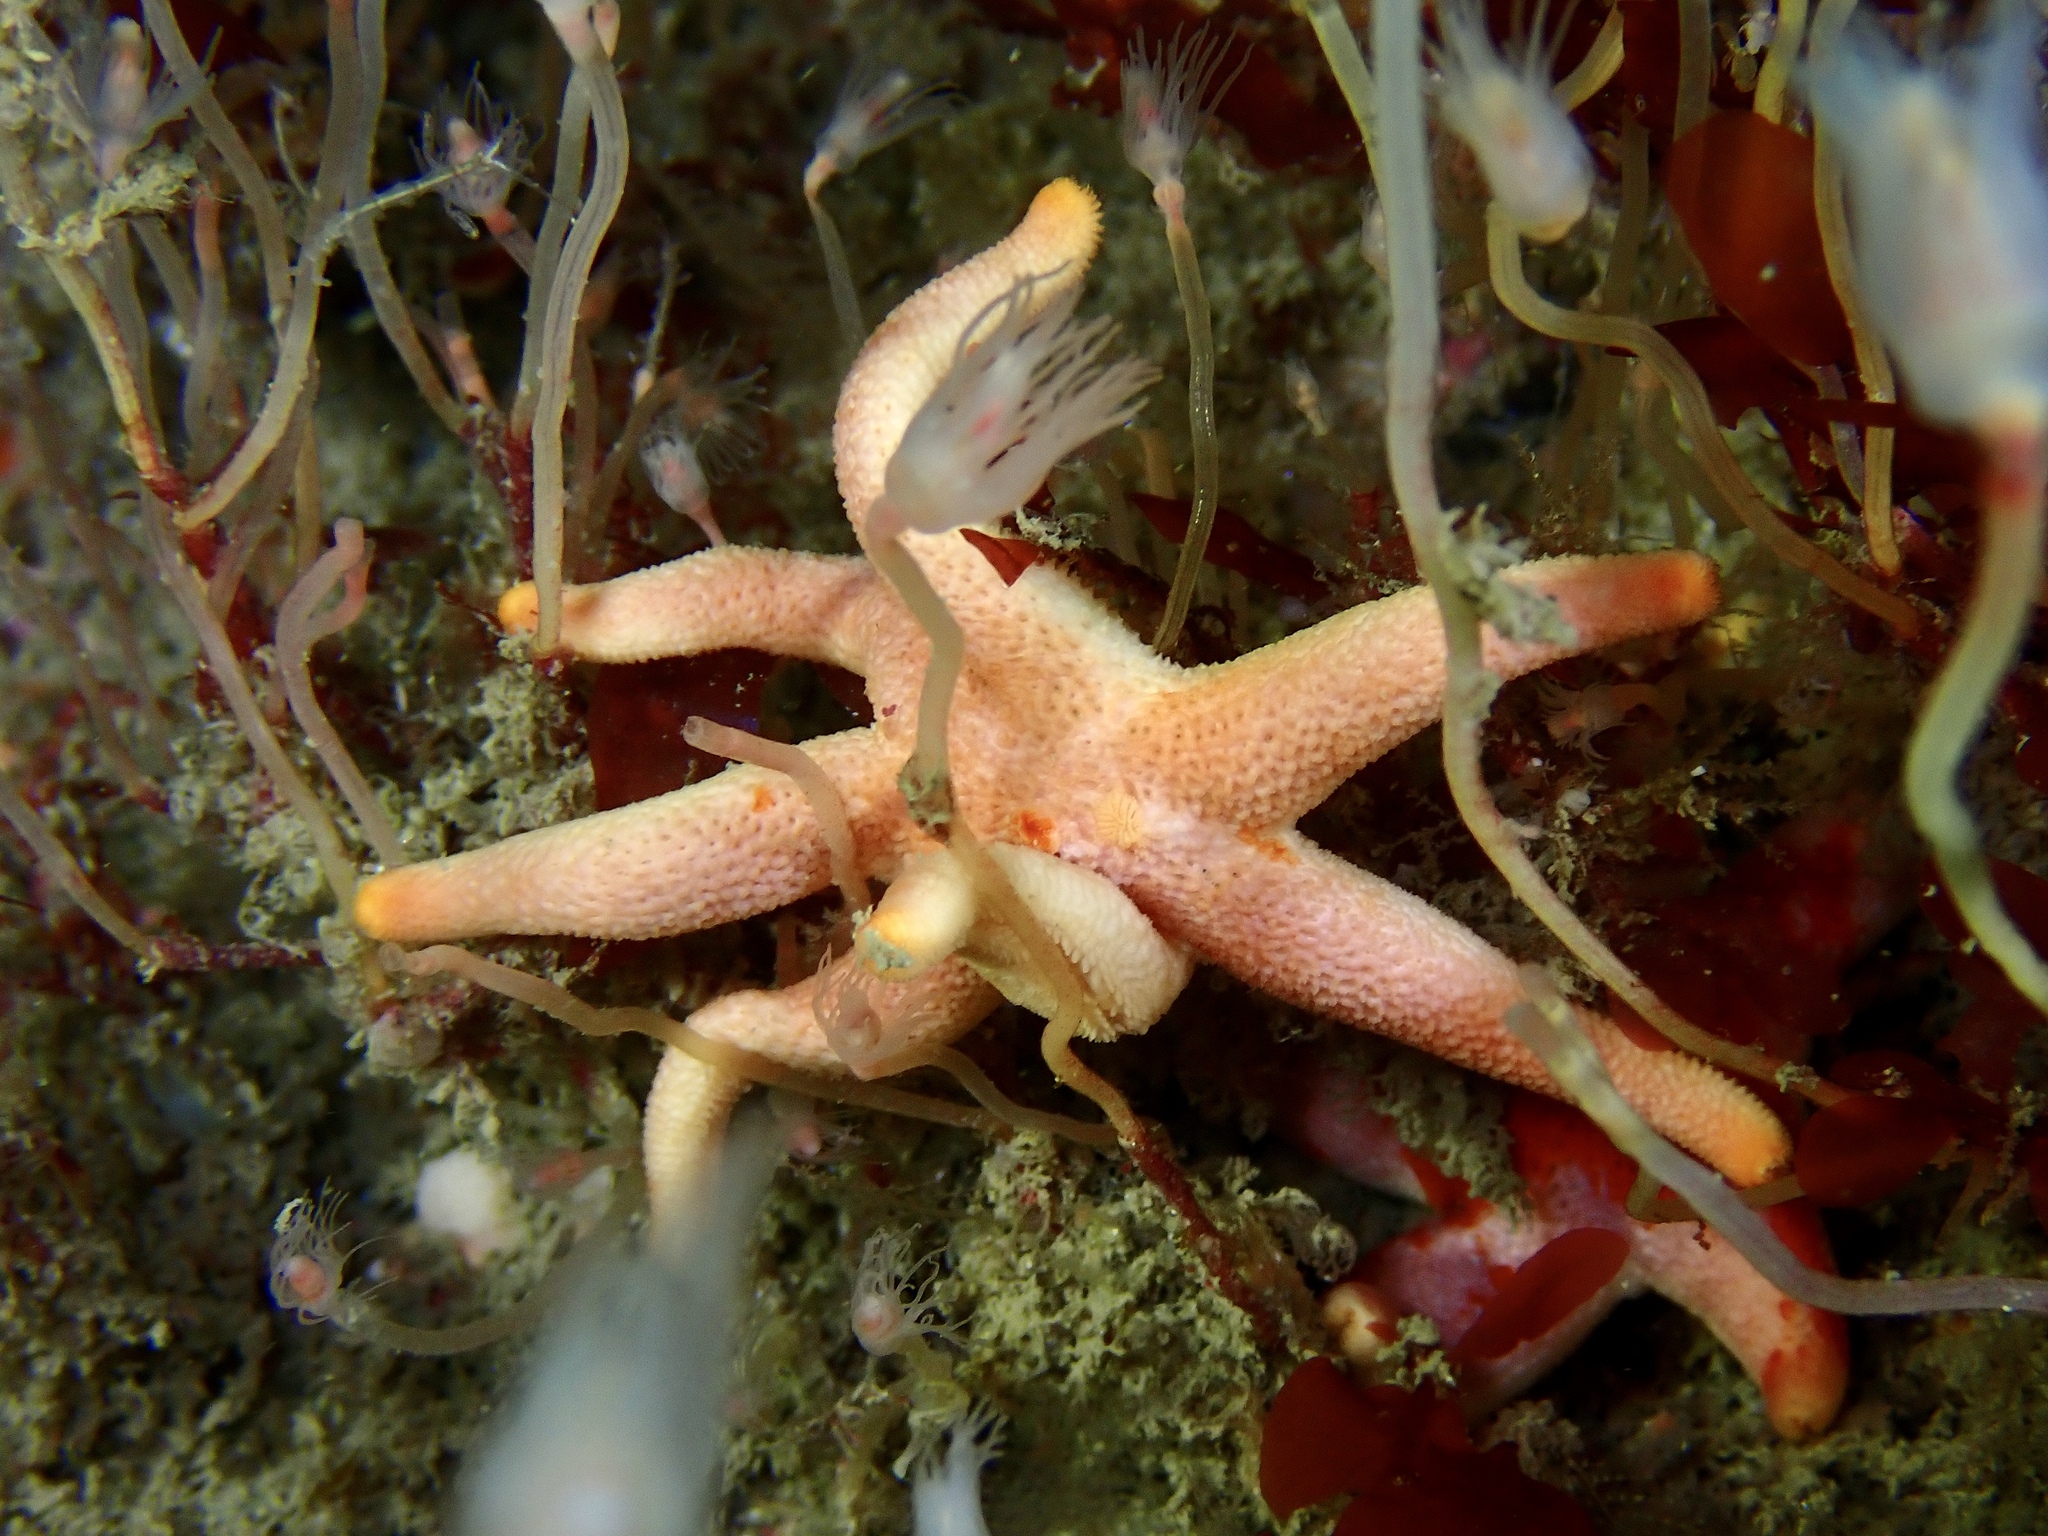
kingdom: Animalia
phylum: Echinodermata
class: Asteroidea
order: Spinulosida
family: Echinasteridae
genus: Henricia
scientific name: Henricia oculata
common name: Bloody henry starfish
